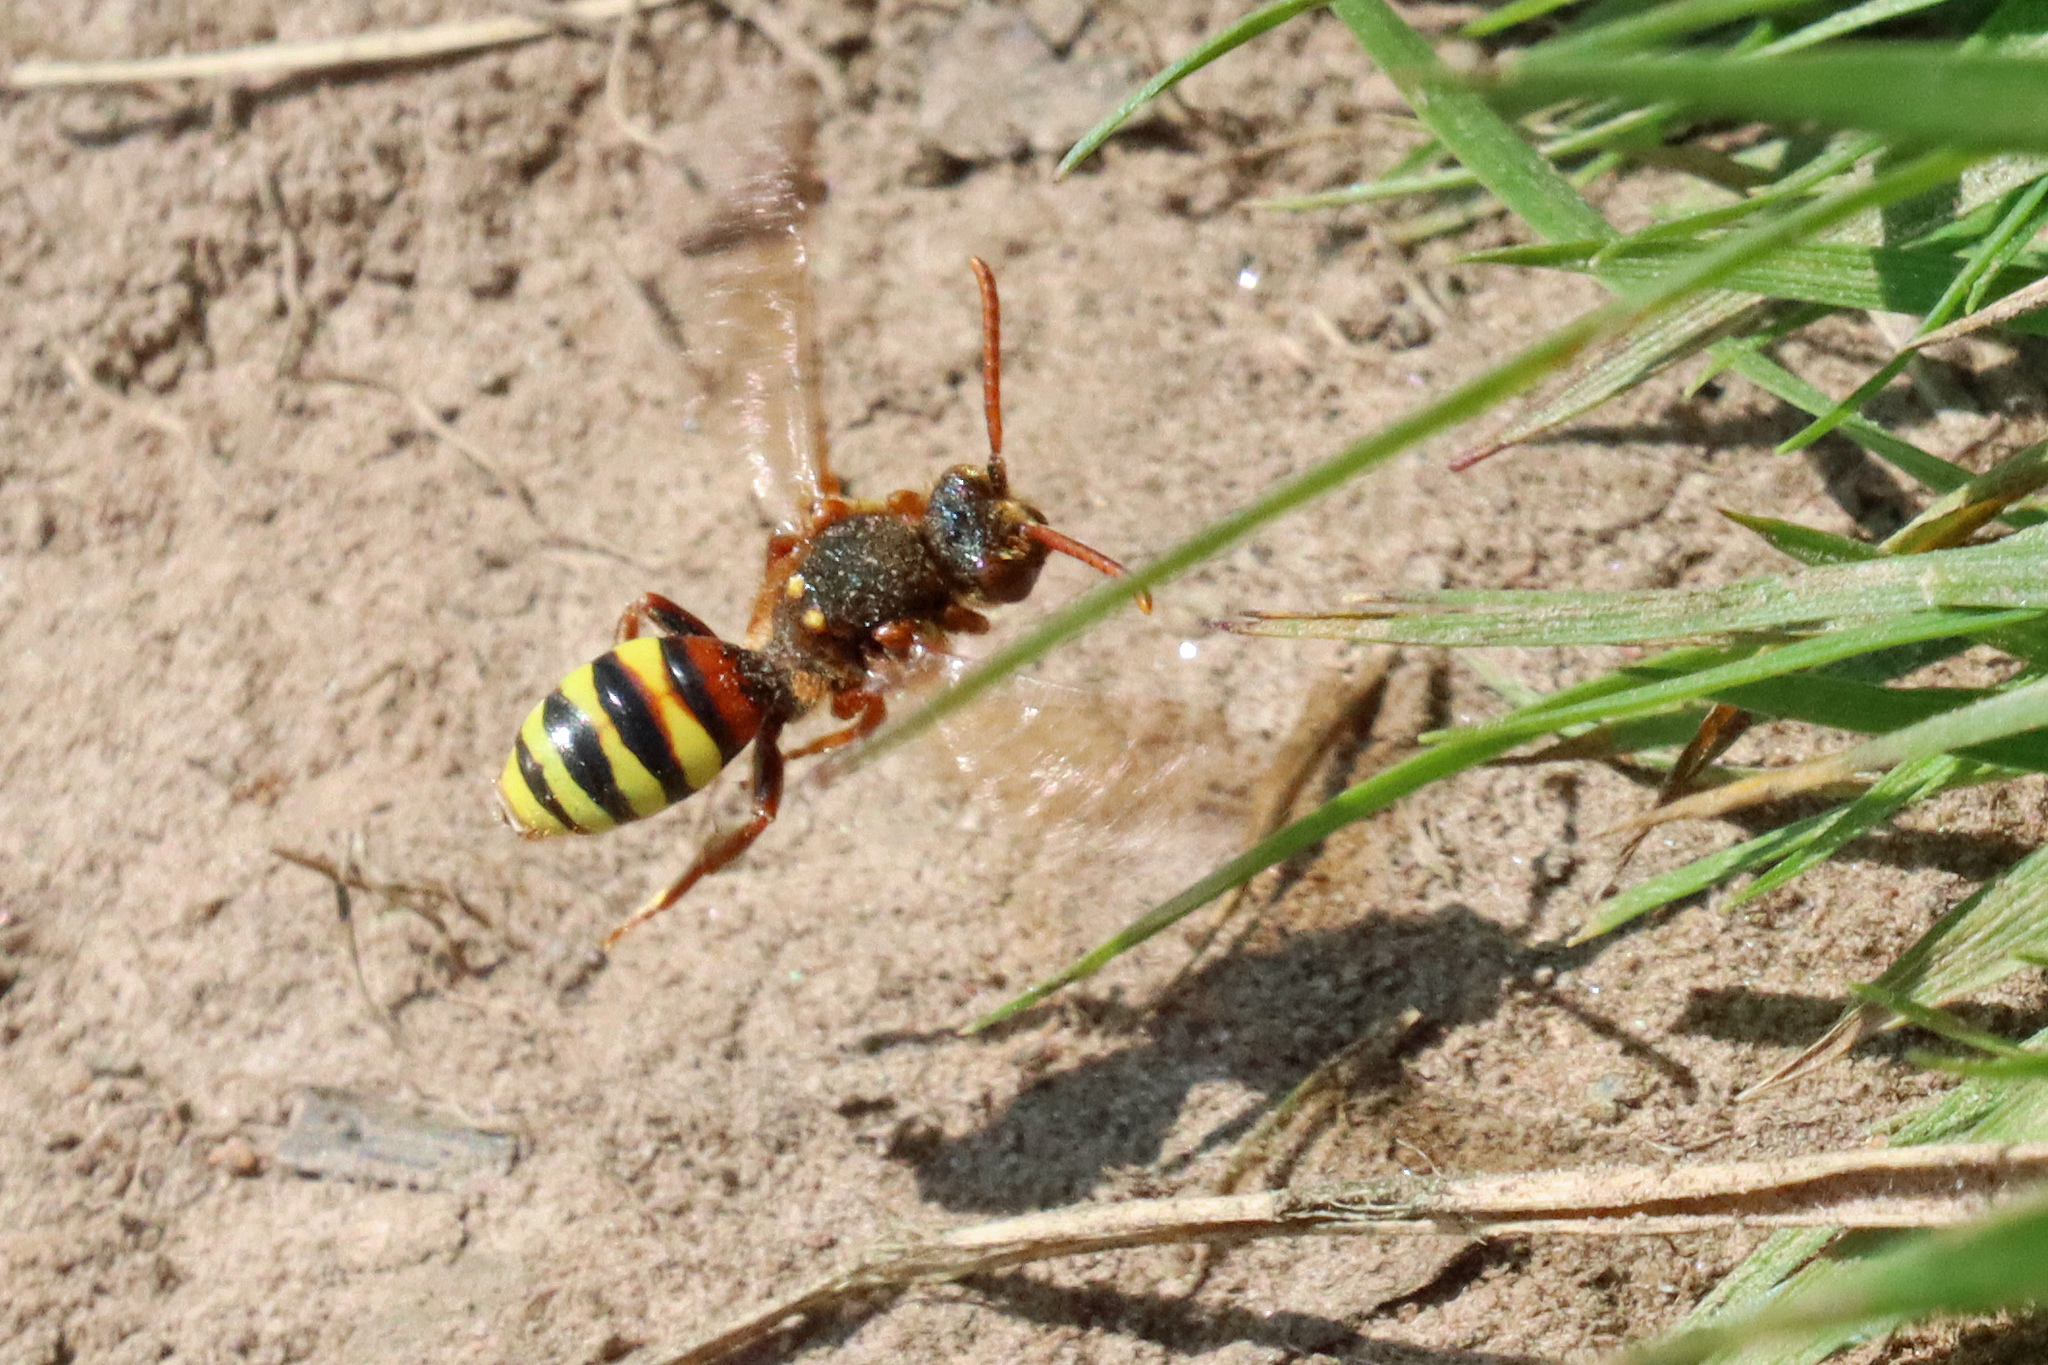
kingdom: Animalia
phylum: Arthropoda
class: Insecta
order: Hymenoptera
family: Apidae
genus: Nomada
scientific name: Nomada lathburiana
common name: Lathbury's nomad bee
